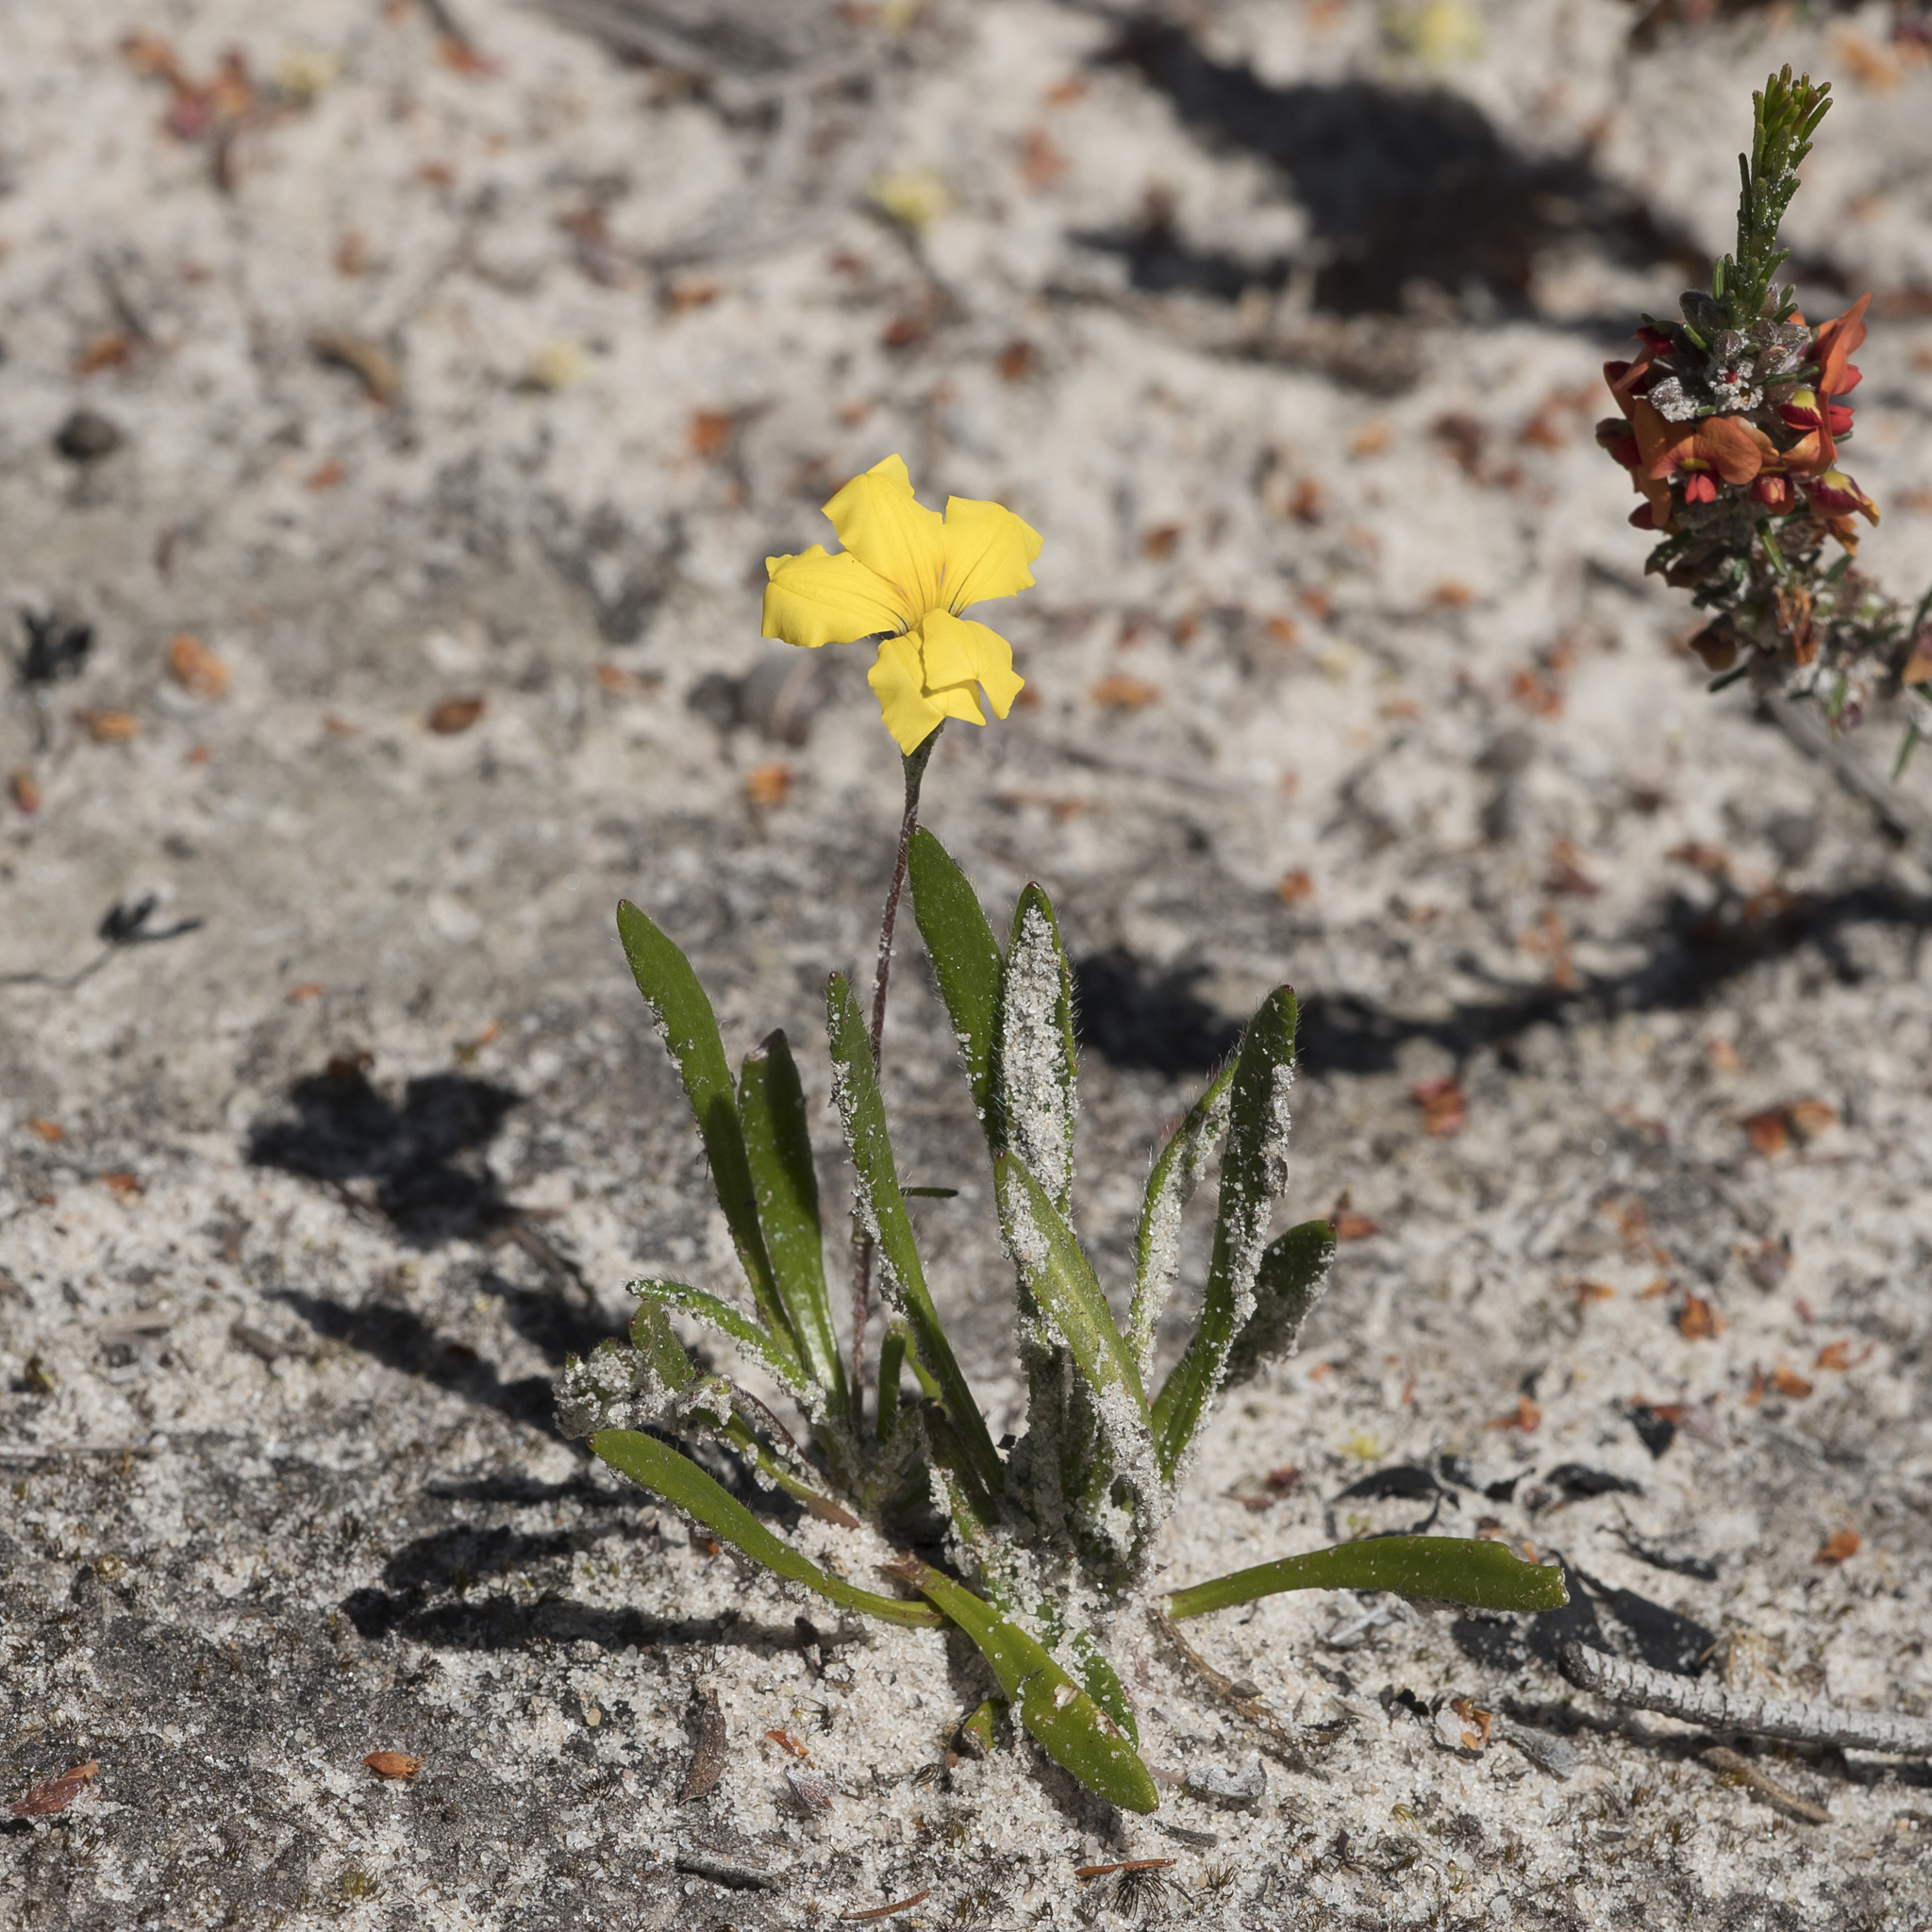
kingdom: Plantae
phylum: Tracheophyta
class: Magnoliopsida
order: Asterales
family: Goodeniaceae
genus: Goodenia
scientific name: Goodenia geniculata
